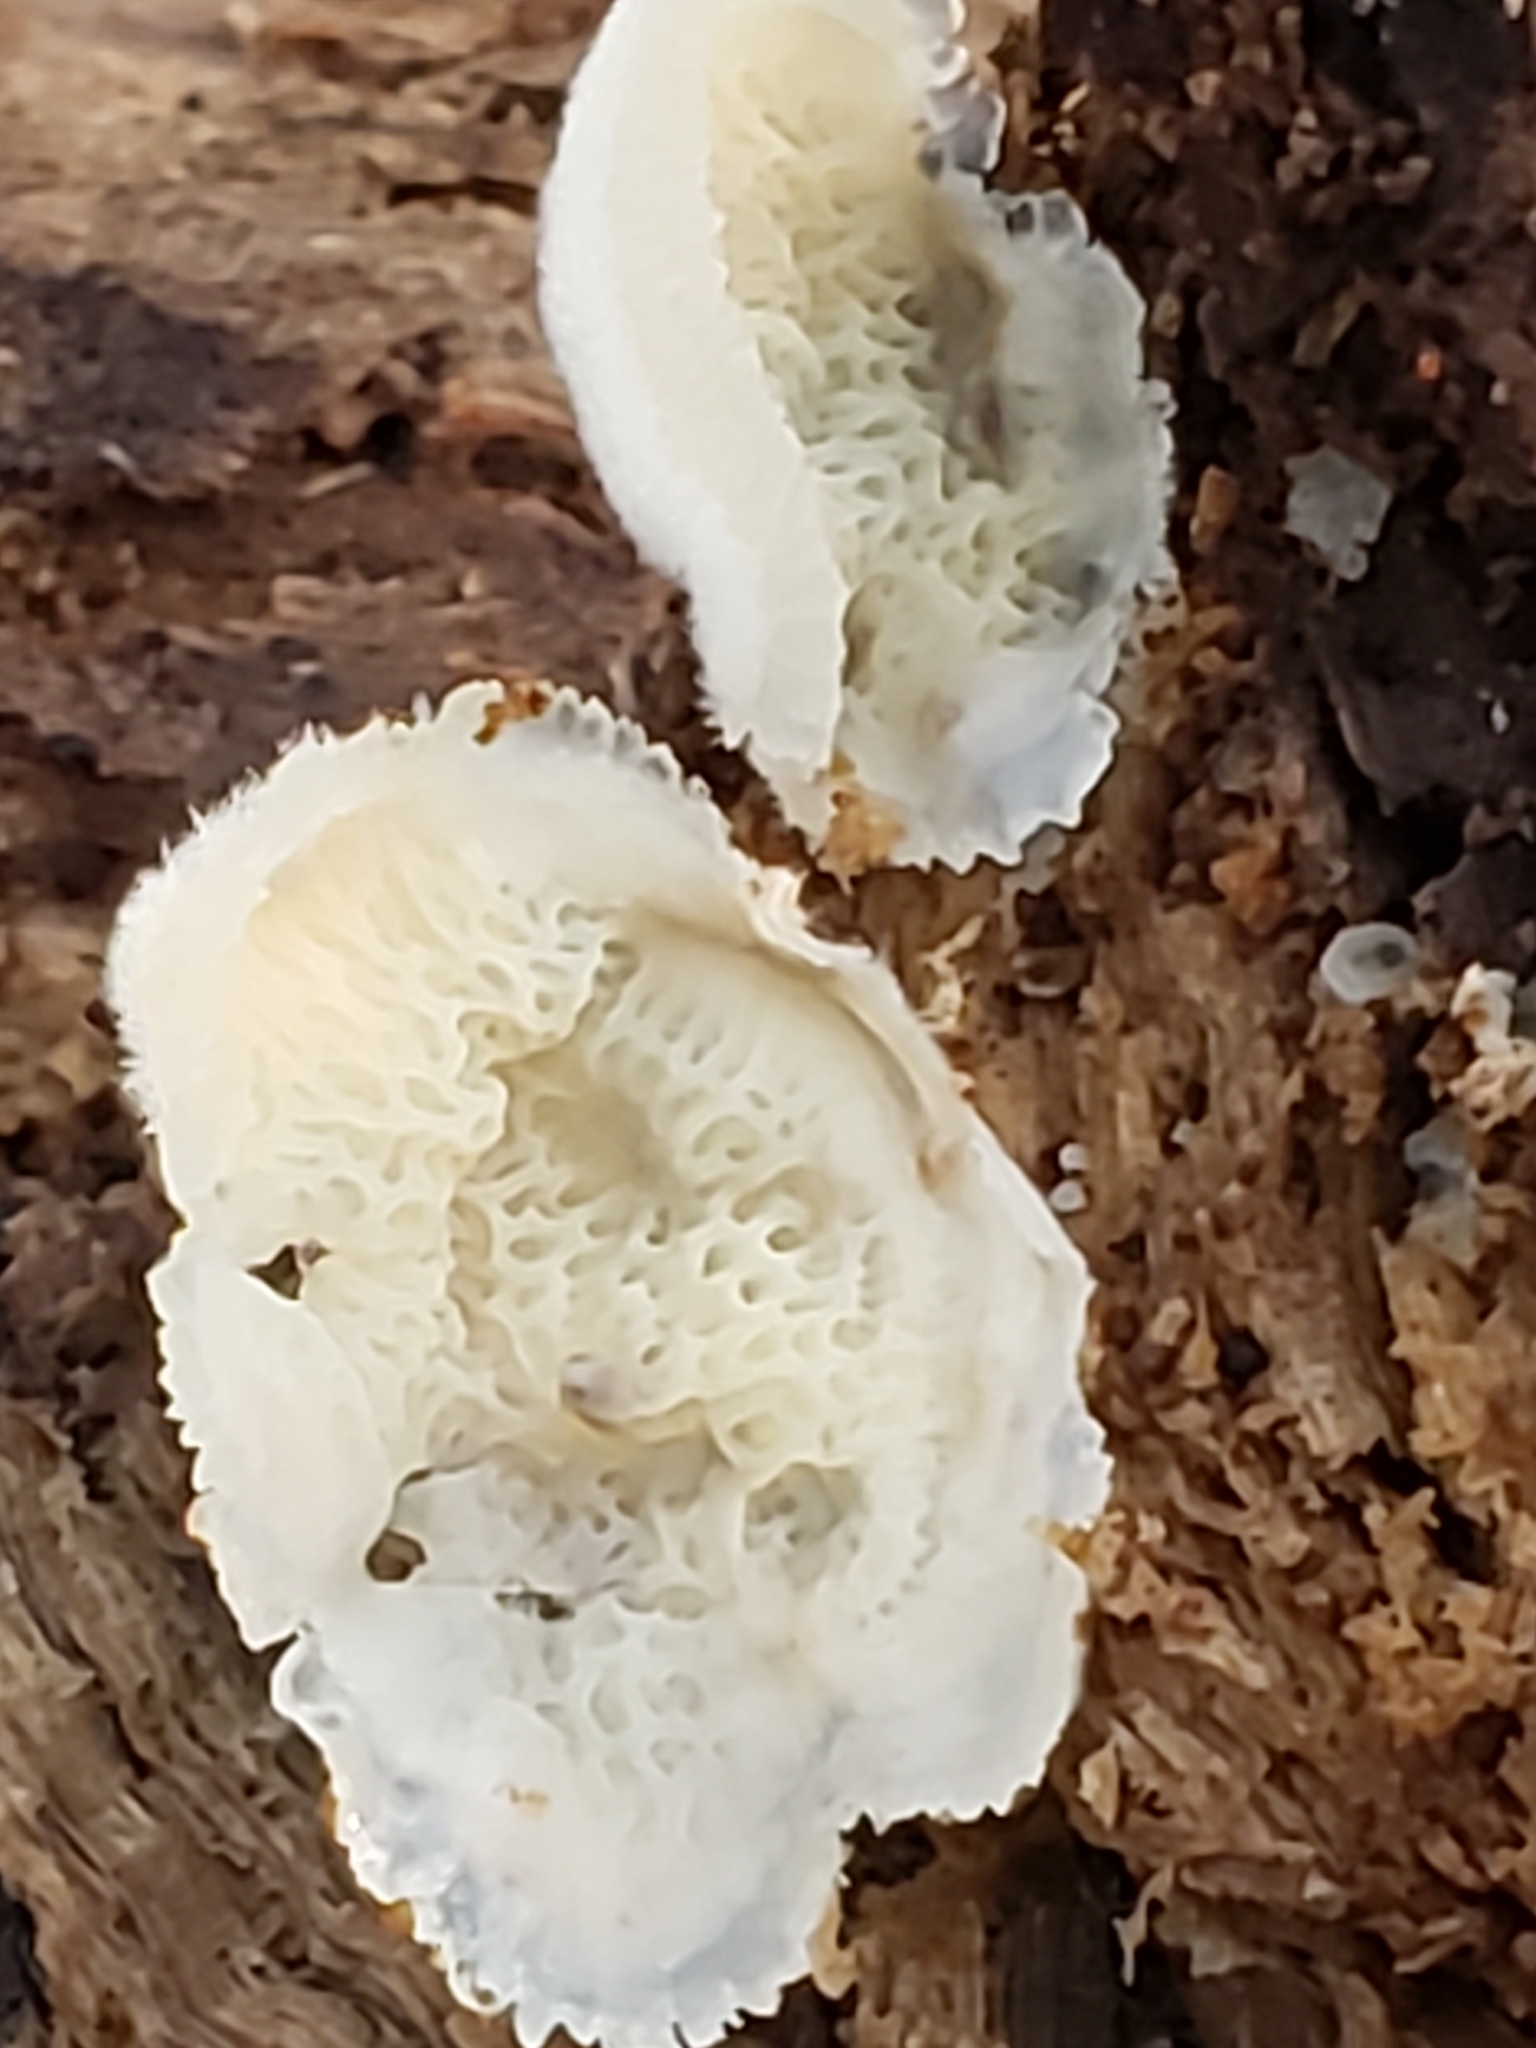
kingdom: Fungi
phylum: Basidiomycota
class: Agaricomycetes
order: Polyporales
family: Meruliaceae
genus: Phlebia
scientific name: Phlebia tremellosa
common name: Jelly rot
